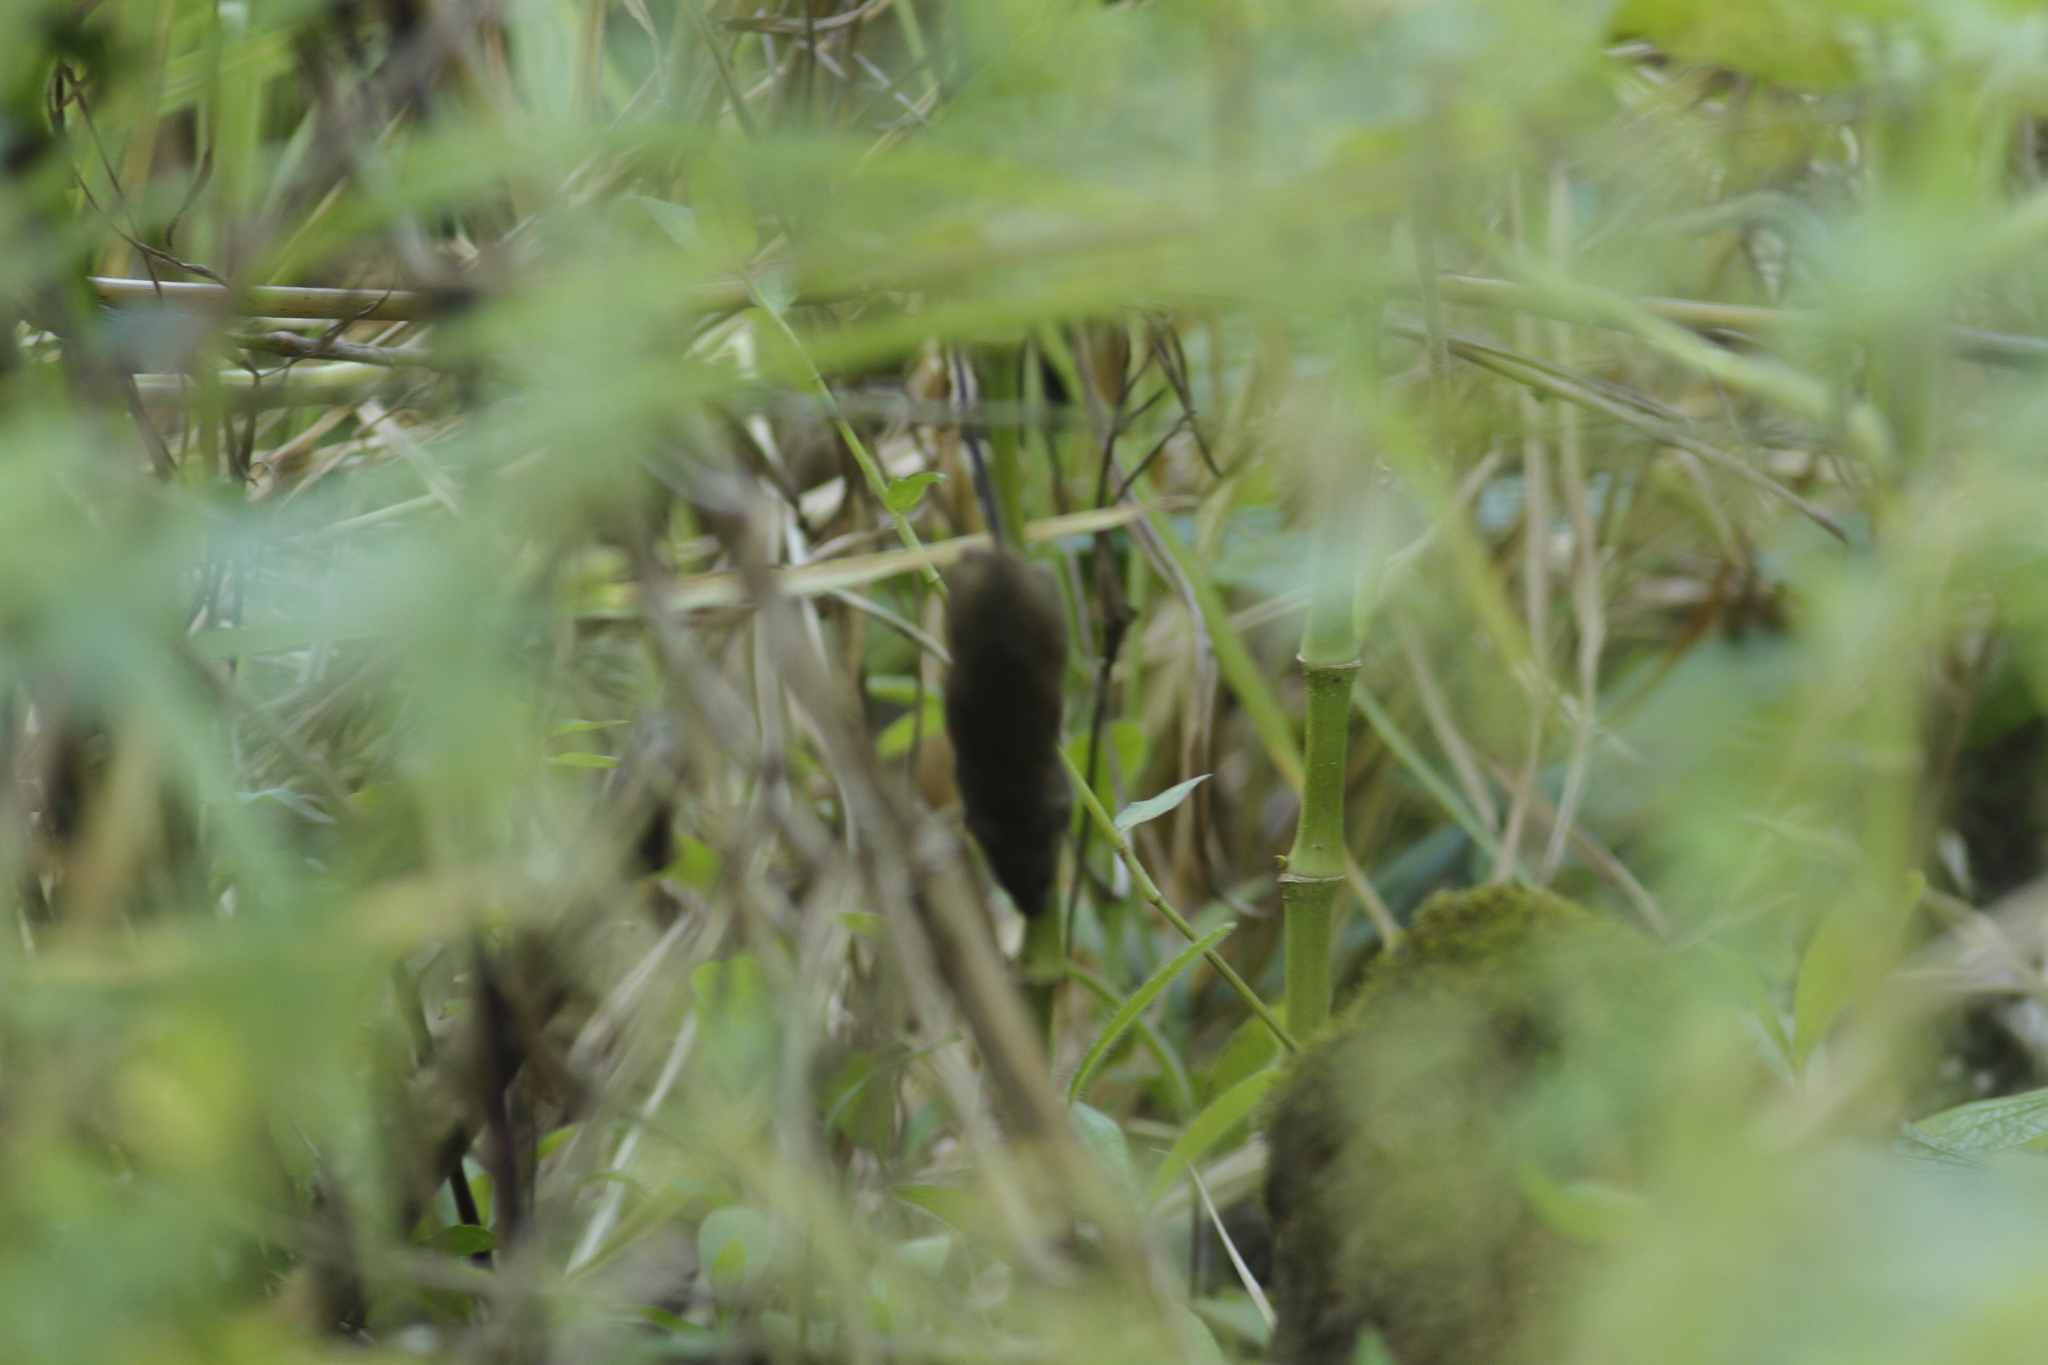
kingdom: Animalia
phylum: Chordata
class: Mammalia
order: Rodentia
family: Muridae
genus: Mus
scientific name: Mus musculus
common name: House mouse
